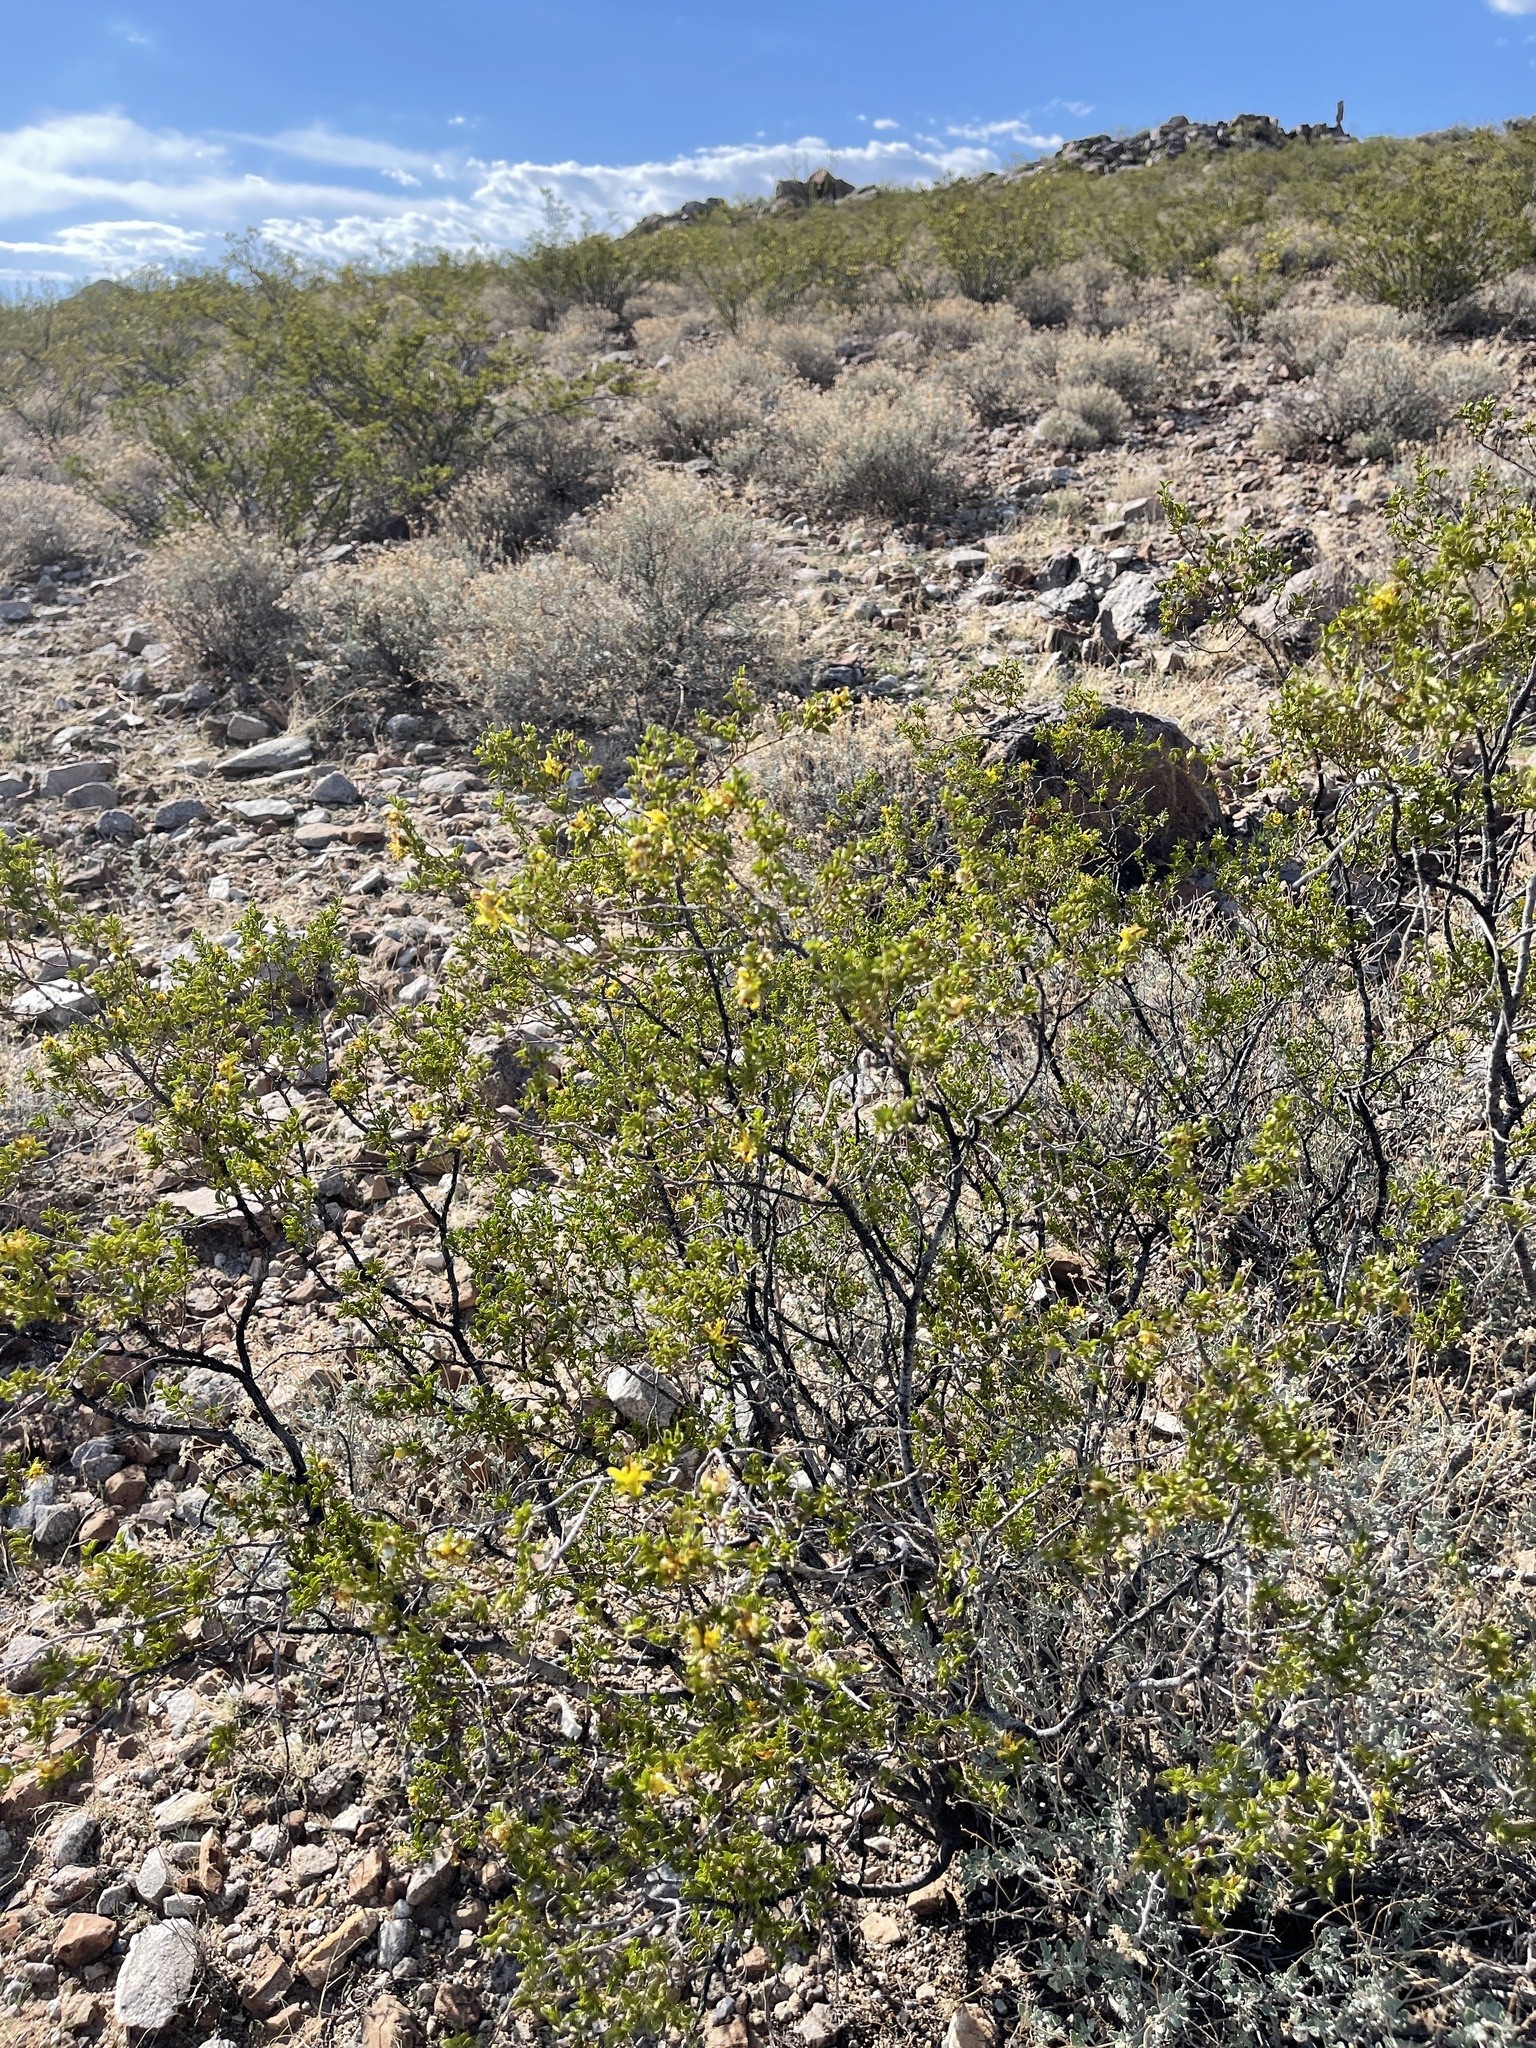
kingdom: Plantae
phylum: Tracheophyta
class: Magnoliopsida
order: Zygophyllales
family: Zygophyllaceae
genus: Larrea
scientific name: Larrea tridentata
